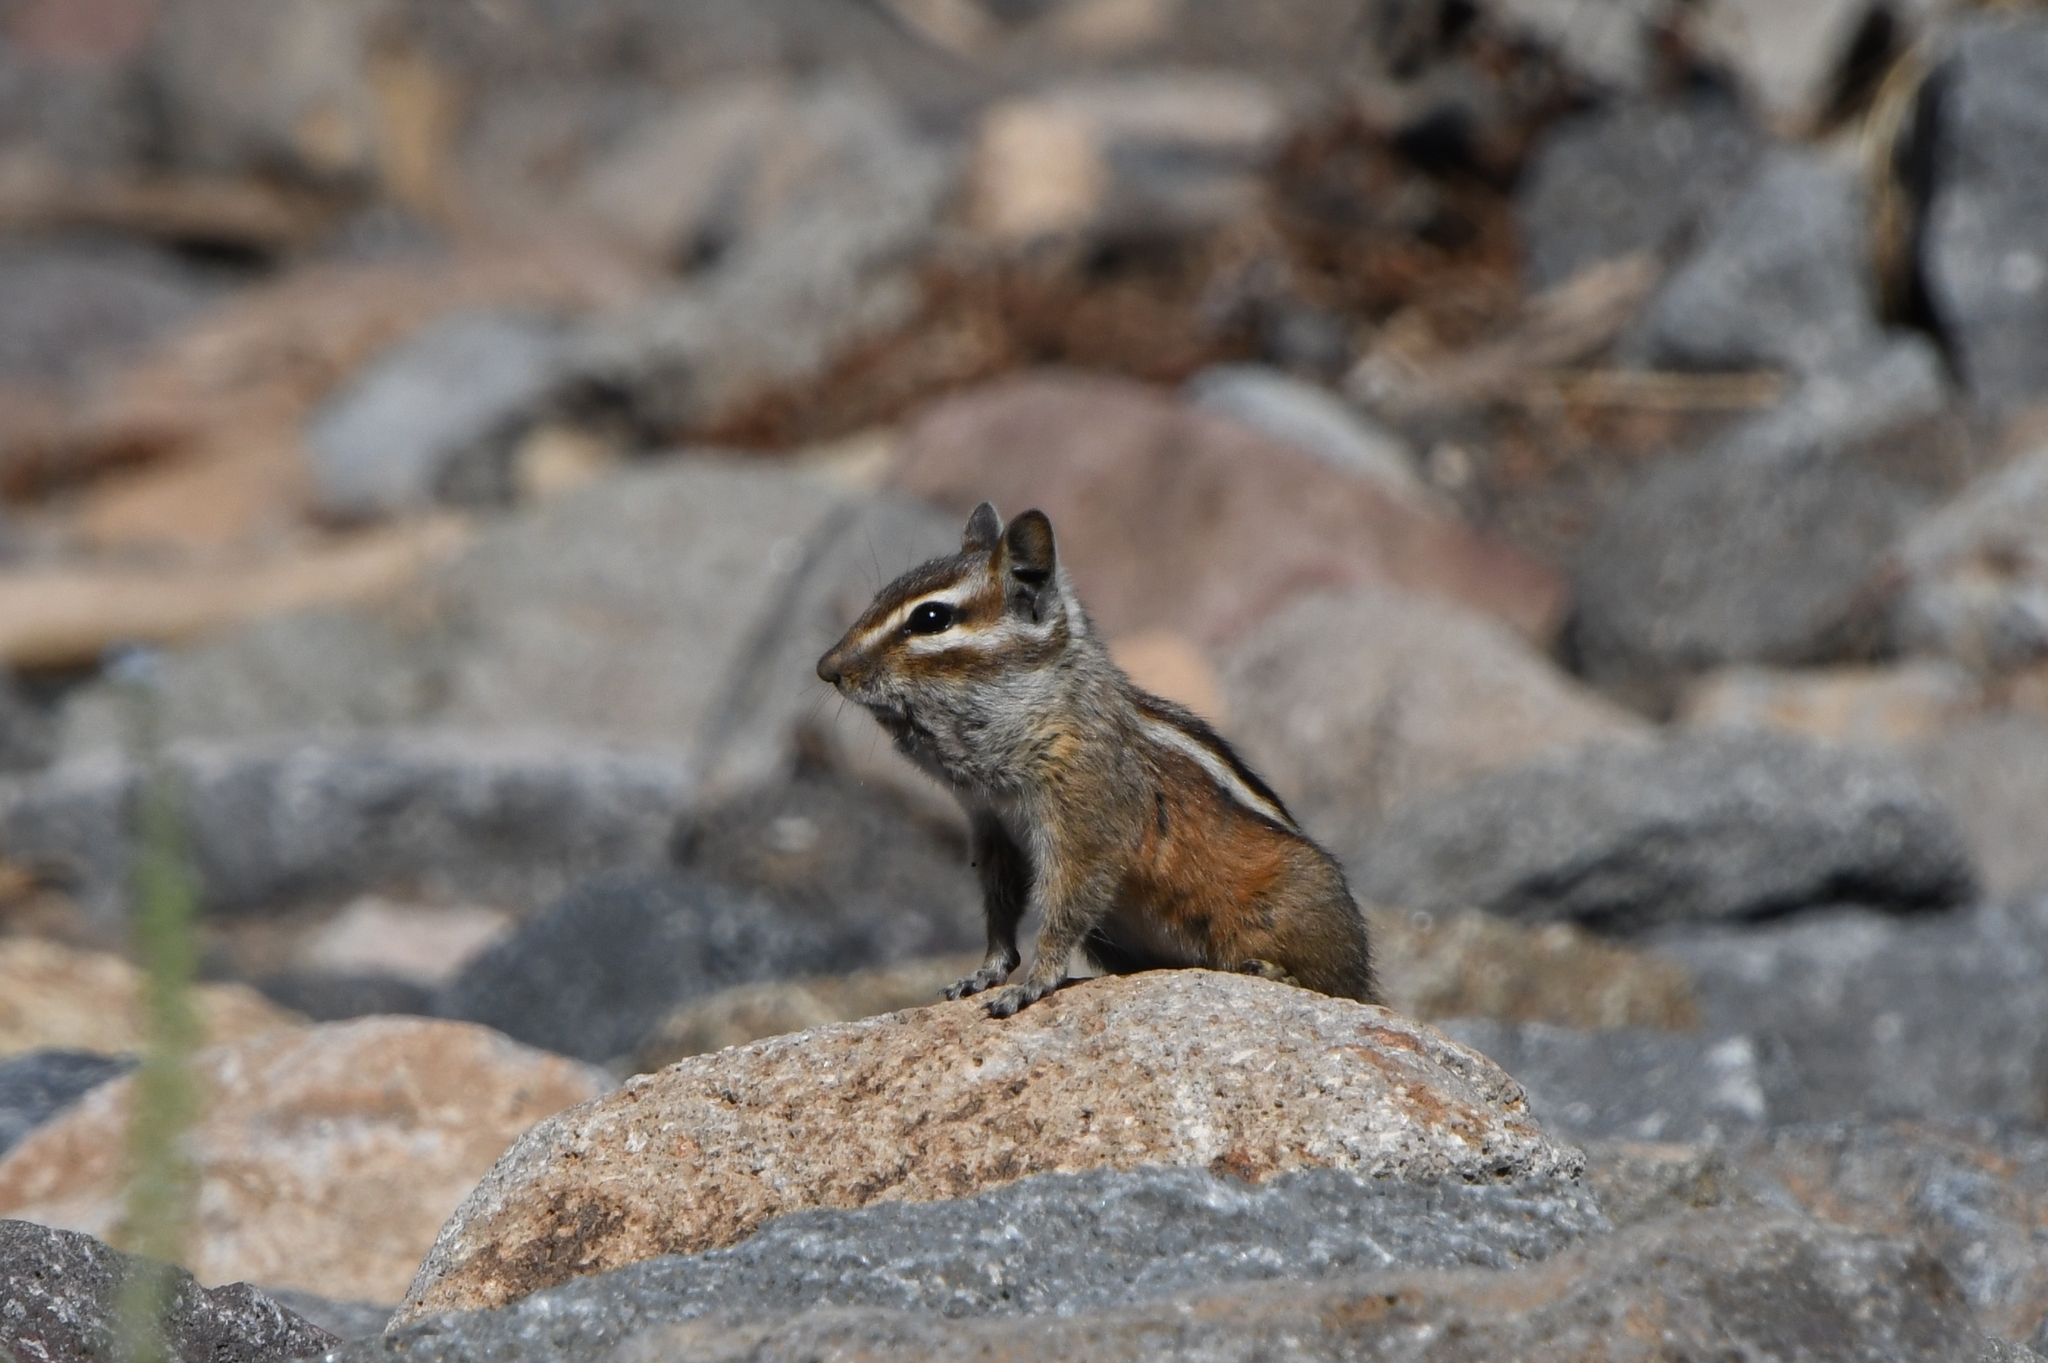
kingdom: Animalia
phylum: Chordata
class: Mammalia
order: Rodentia
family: Sciuridae
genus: Tamias
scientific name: Tamias cinereicollis
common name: Gray-collared chipmunk
